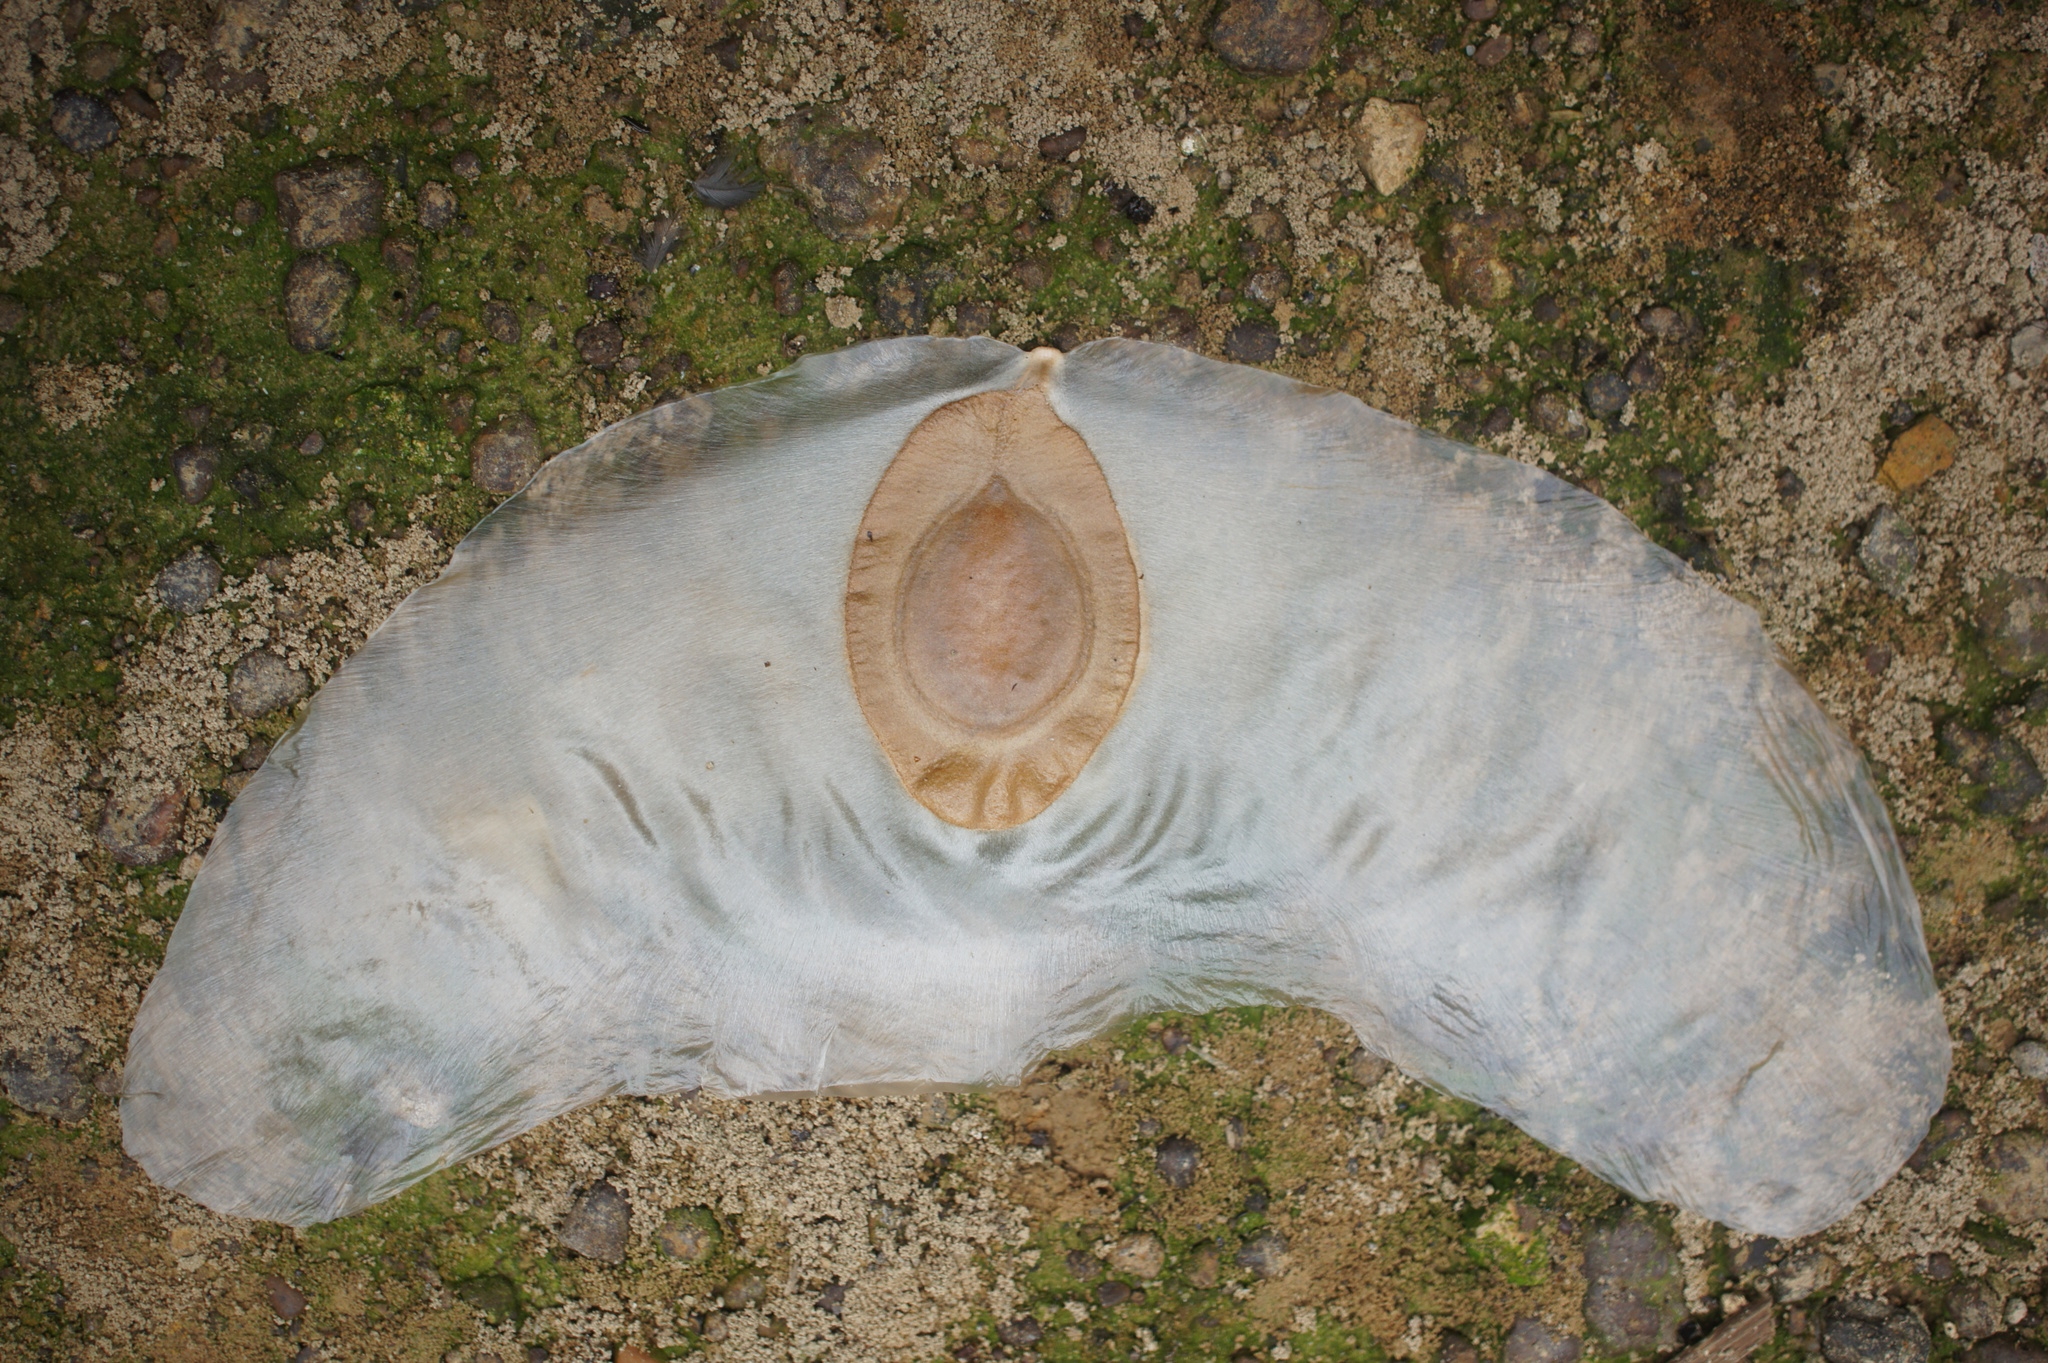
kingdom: Plantae
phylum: Tracheophyta
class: Magnoliopsida
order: Cucurbitales
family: Cucurbitaceae
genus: Alsomitra
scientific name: Alsomitra macrocarpa
